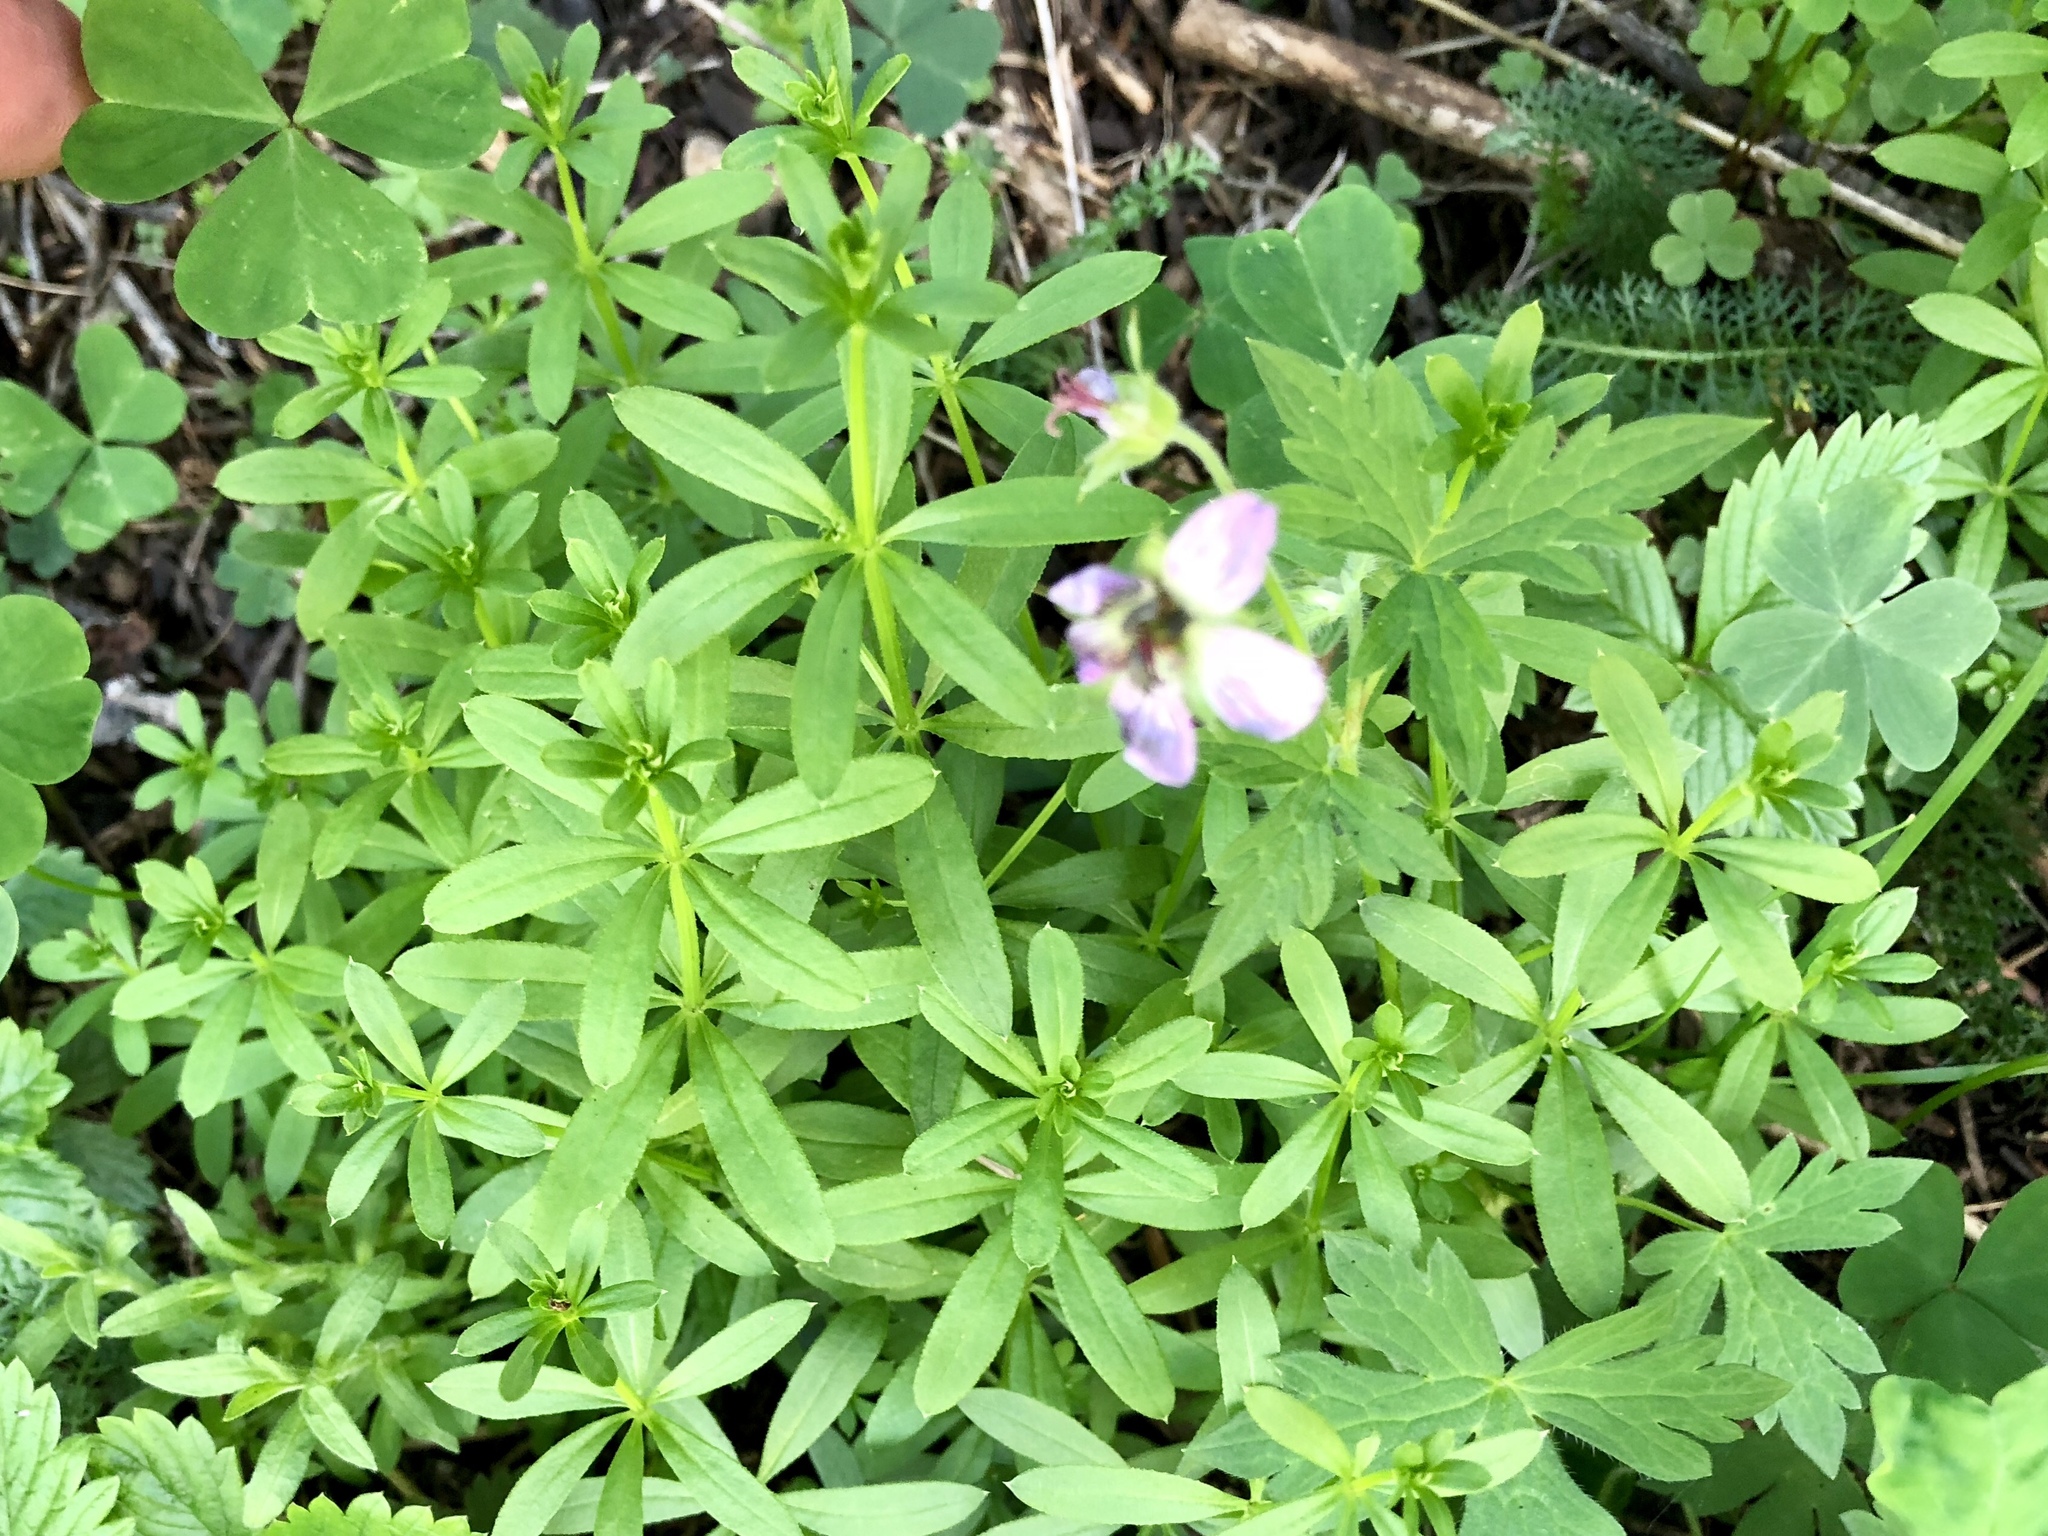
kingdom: Plantae
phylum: Tracheophyta
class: Magnoliopsida
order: Geraniales
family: Geraniaceae
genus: Geranium
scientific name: Geranium richardsonii
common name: Richardson's crane's-bill
